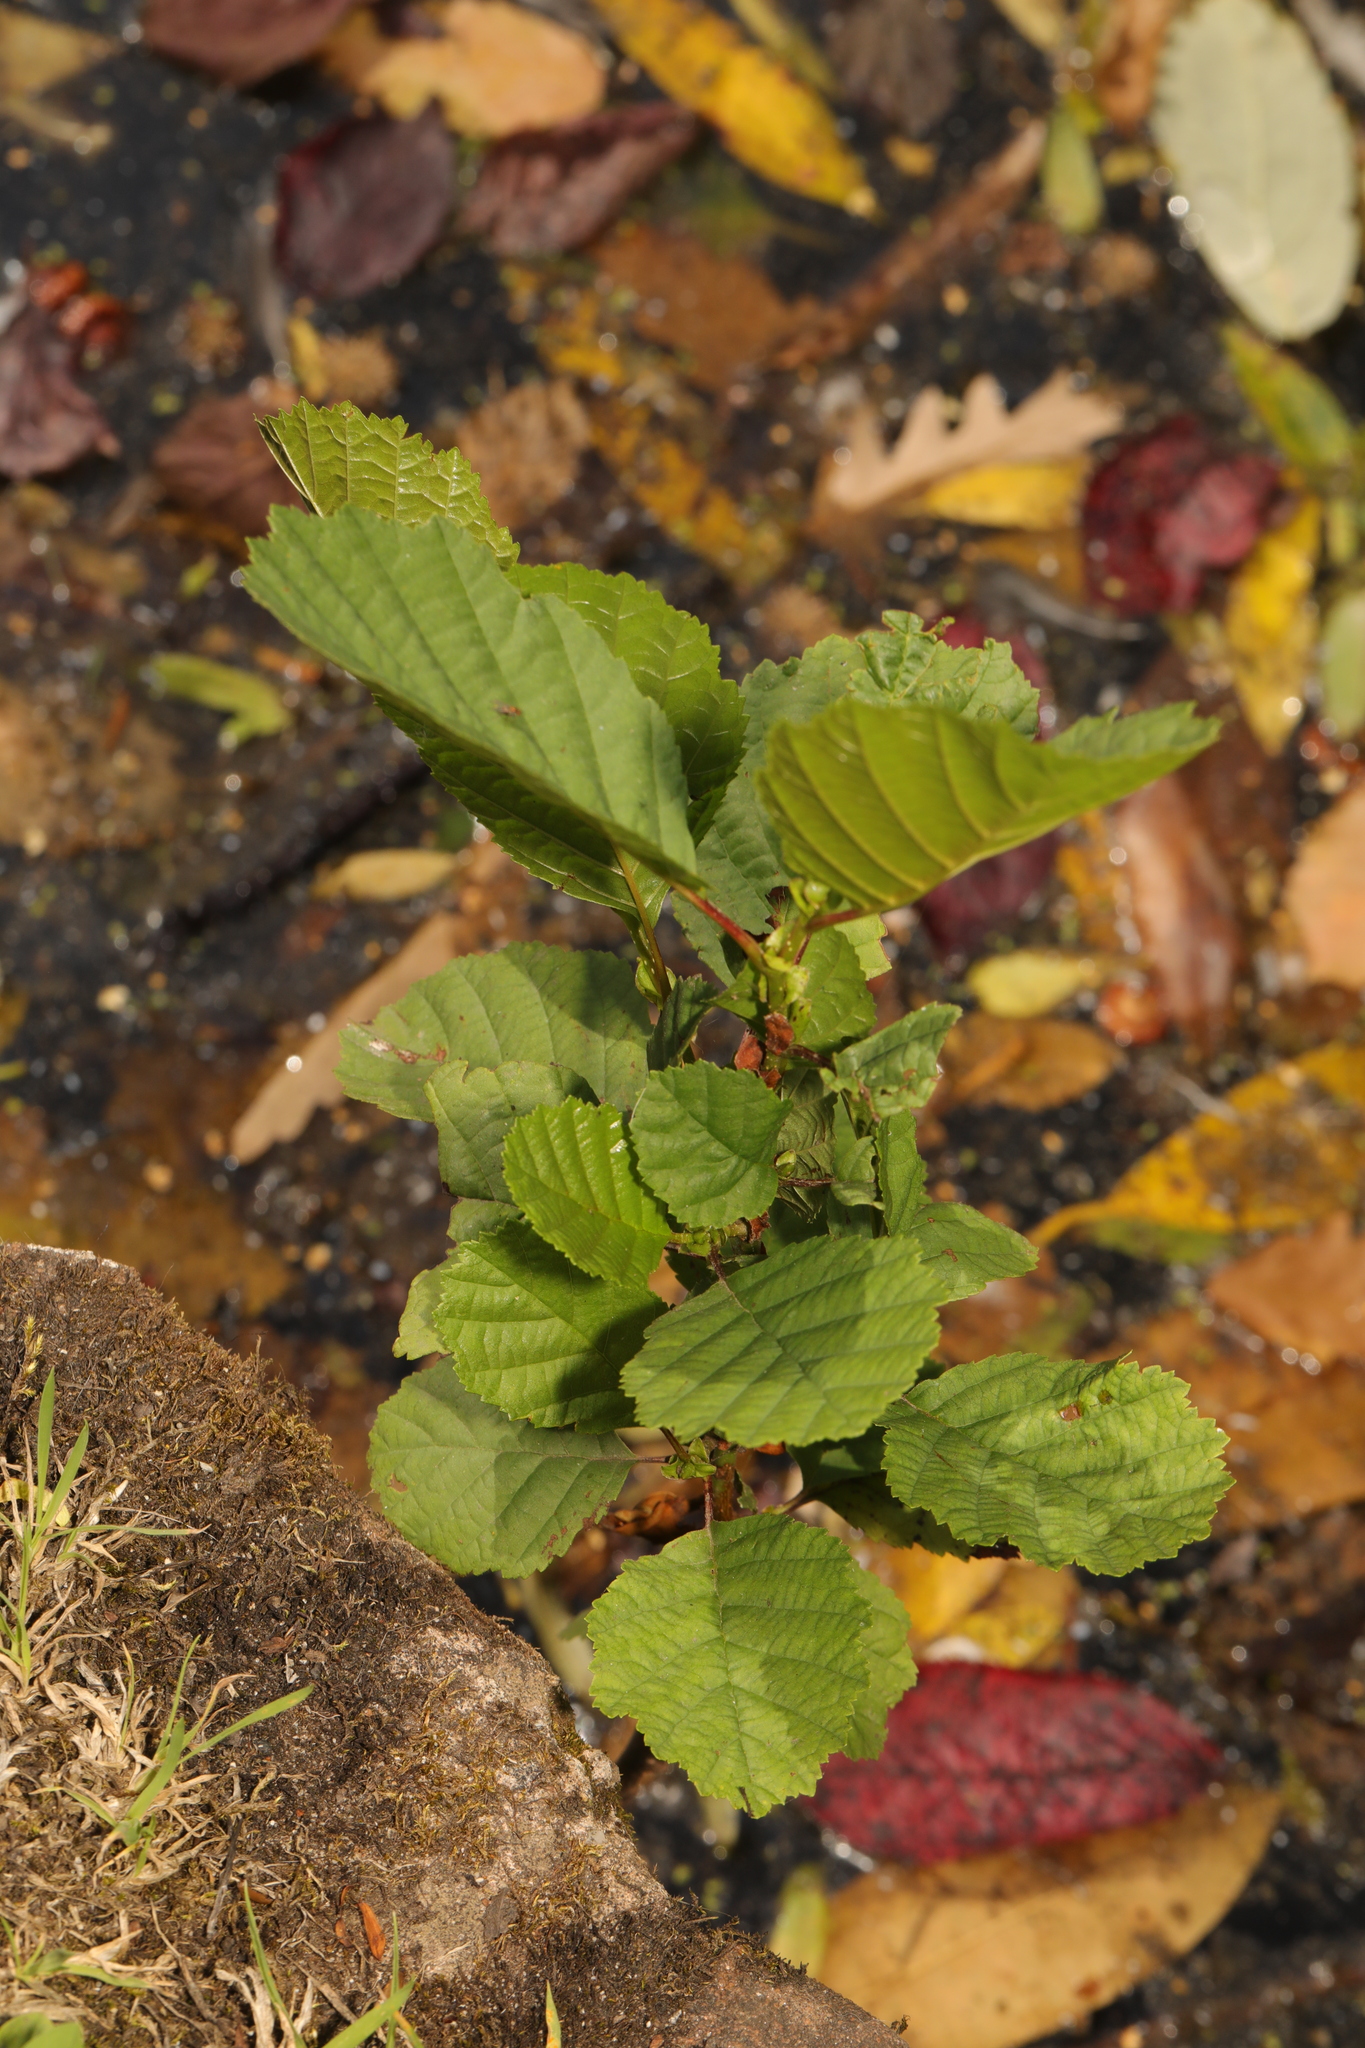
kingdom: Plantae
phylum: Tracheophyta
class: Magnoliopsida
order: Fagales
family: Betulaceae
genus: Alnus
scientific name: Alnus glutinosa
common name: Black alder
